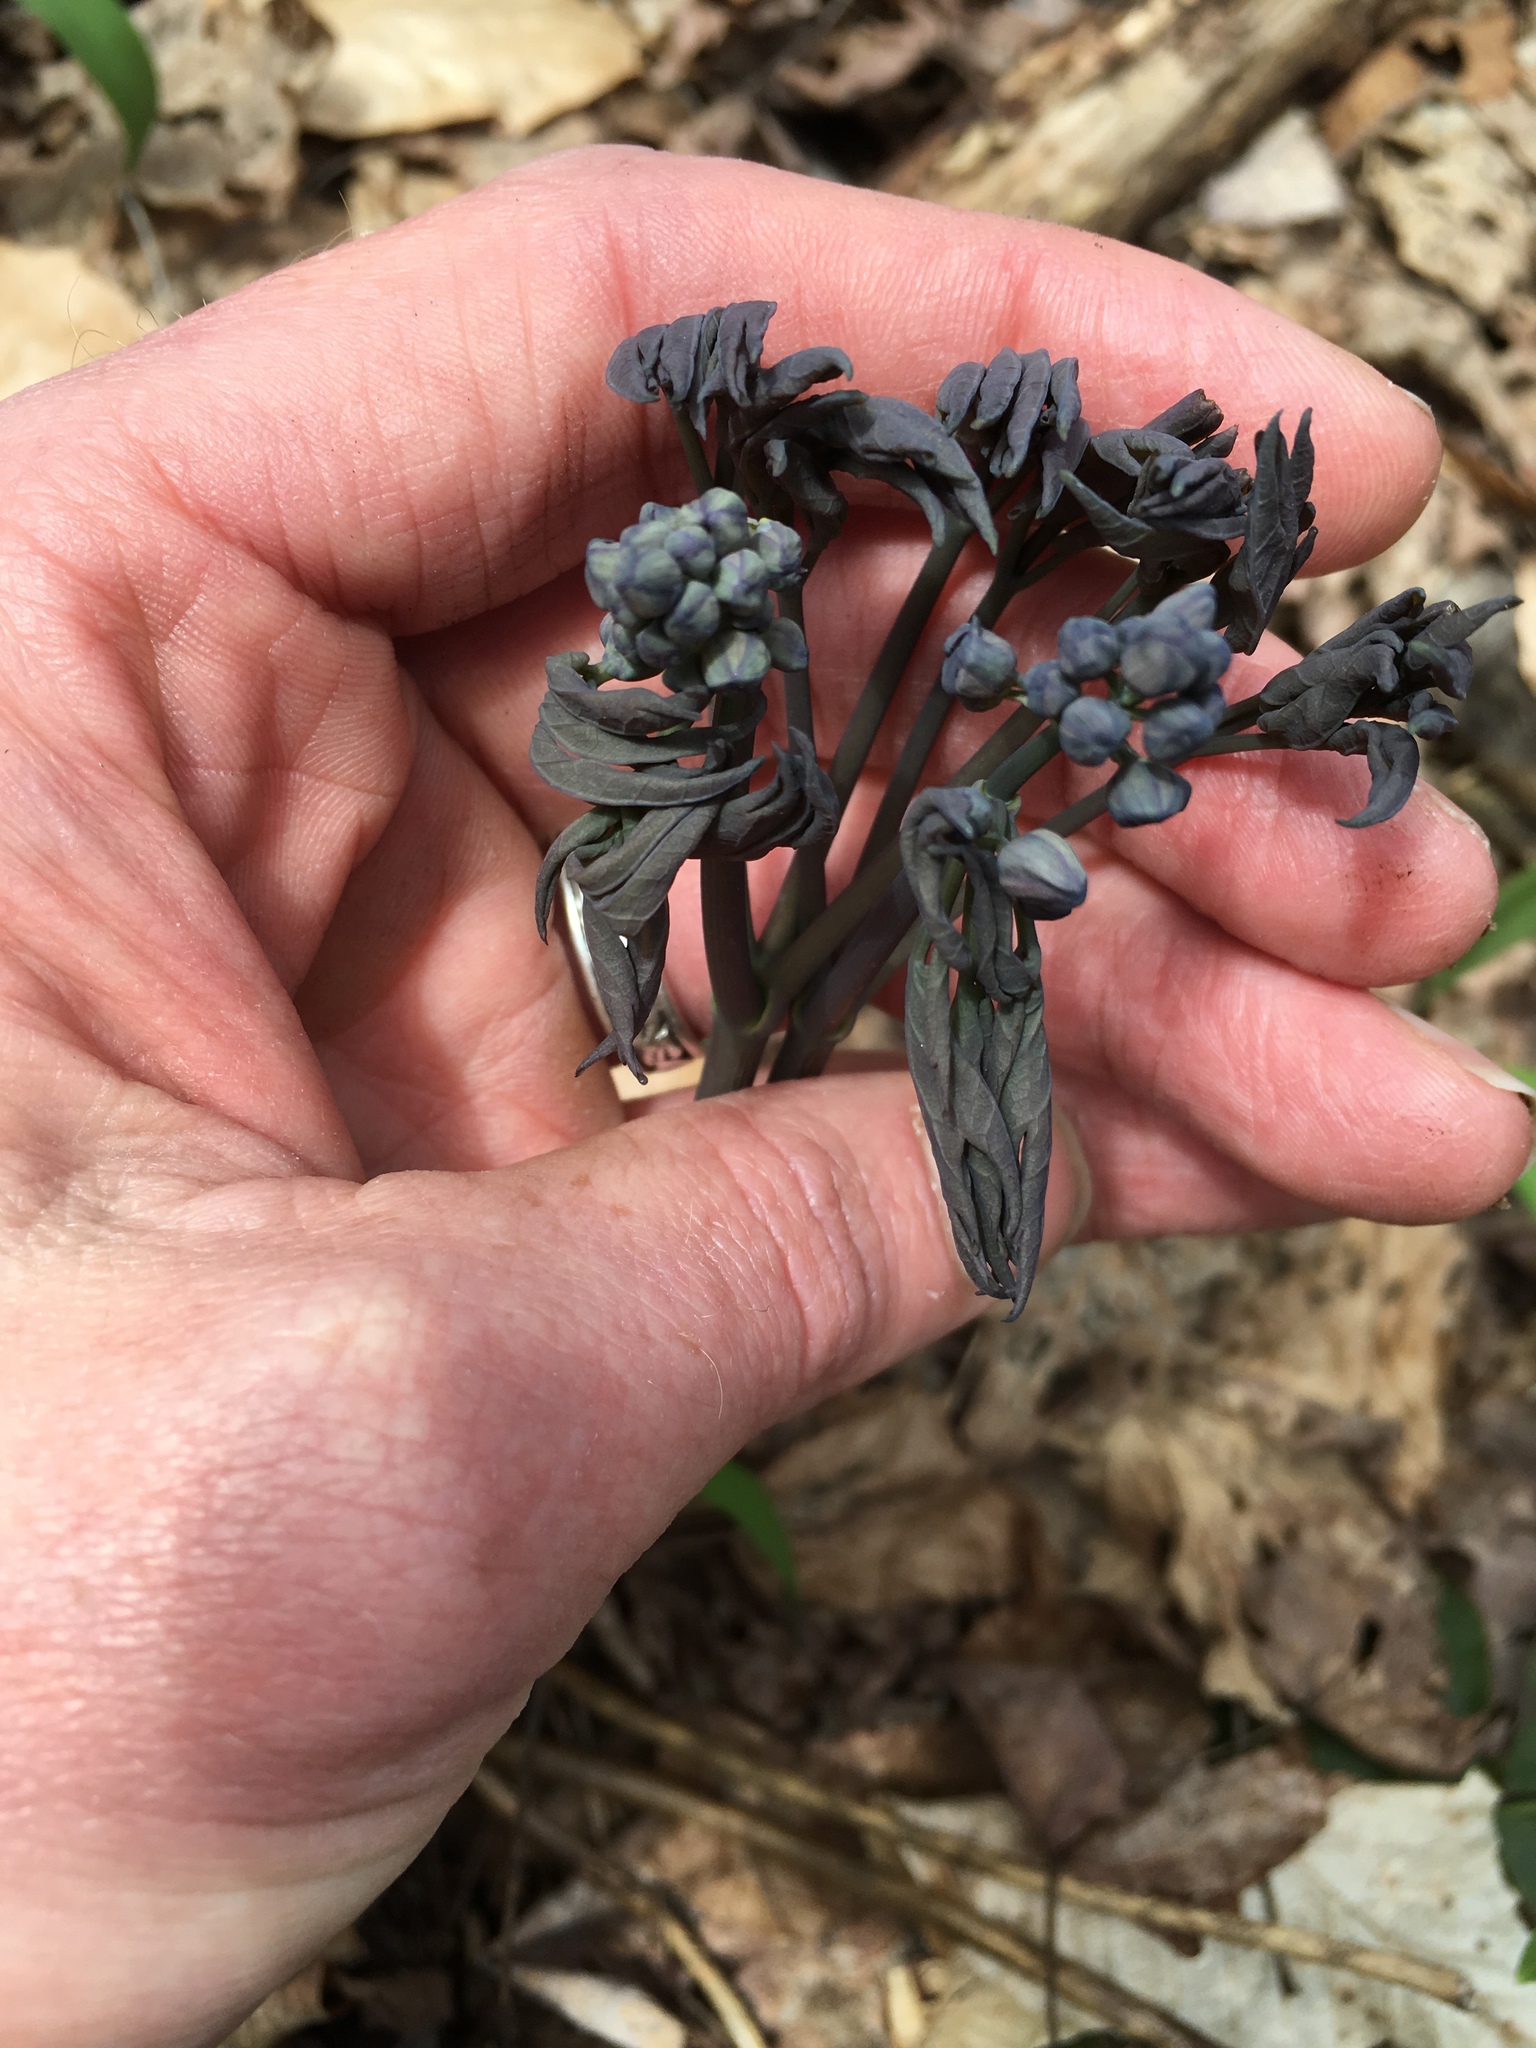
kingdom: Plantae
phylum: Tracheophyta
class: Magnoliopsida
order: Ranunculales
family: Berberidaceae
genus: Caulophyllum
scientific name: Caulophyllum giganteum
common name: Blue cohosh
